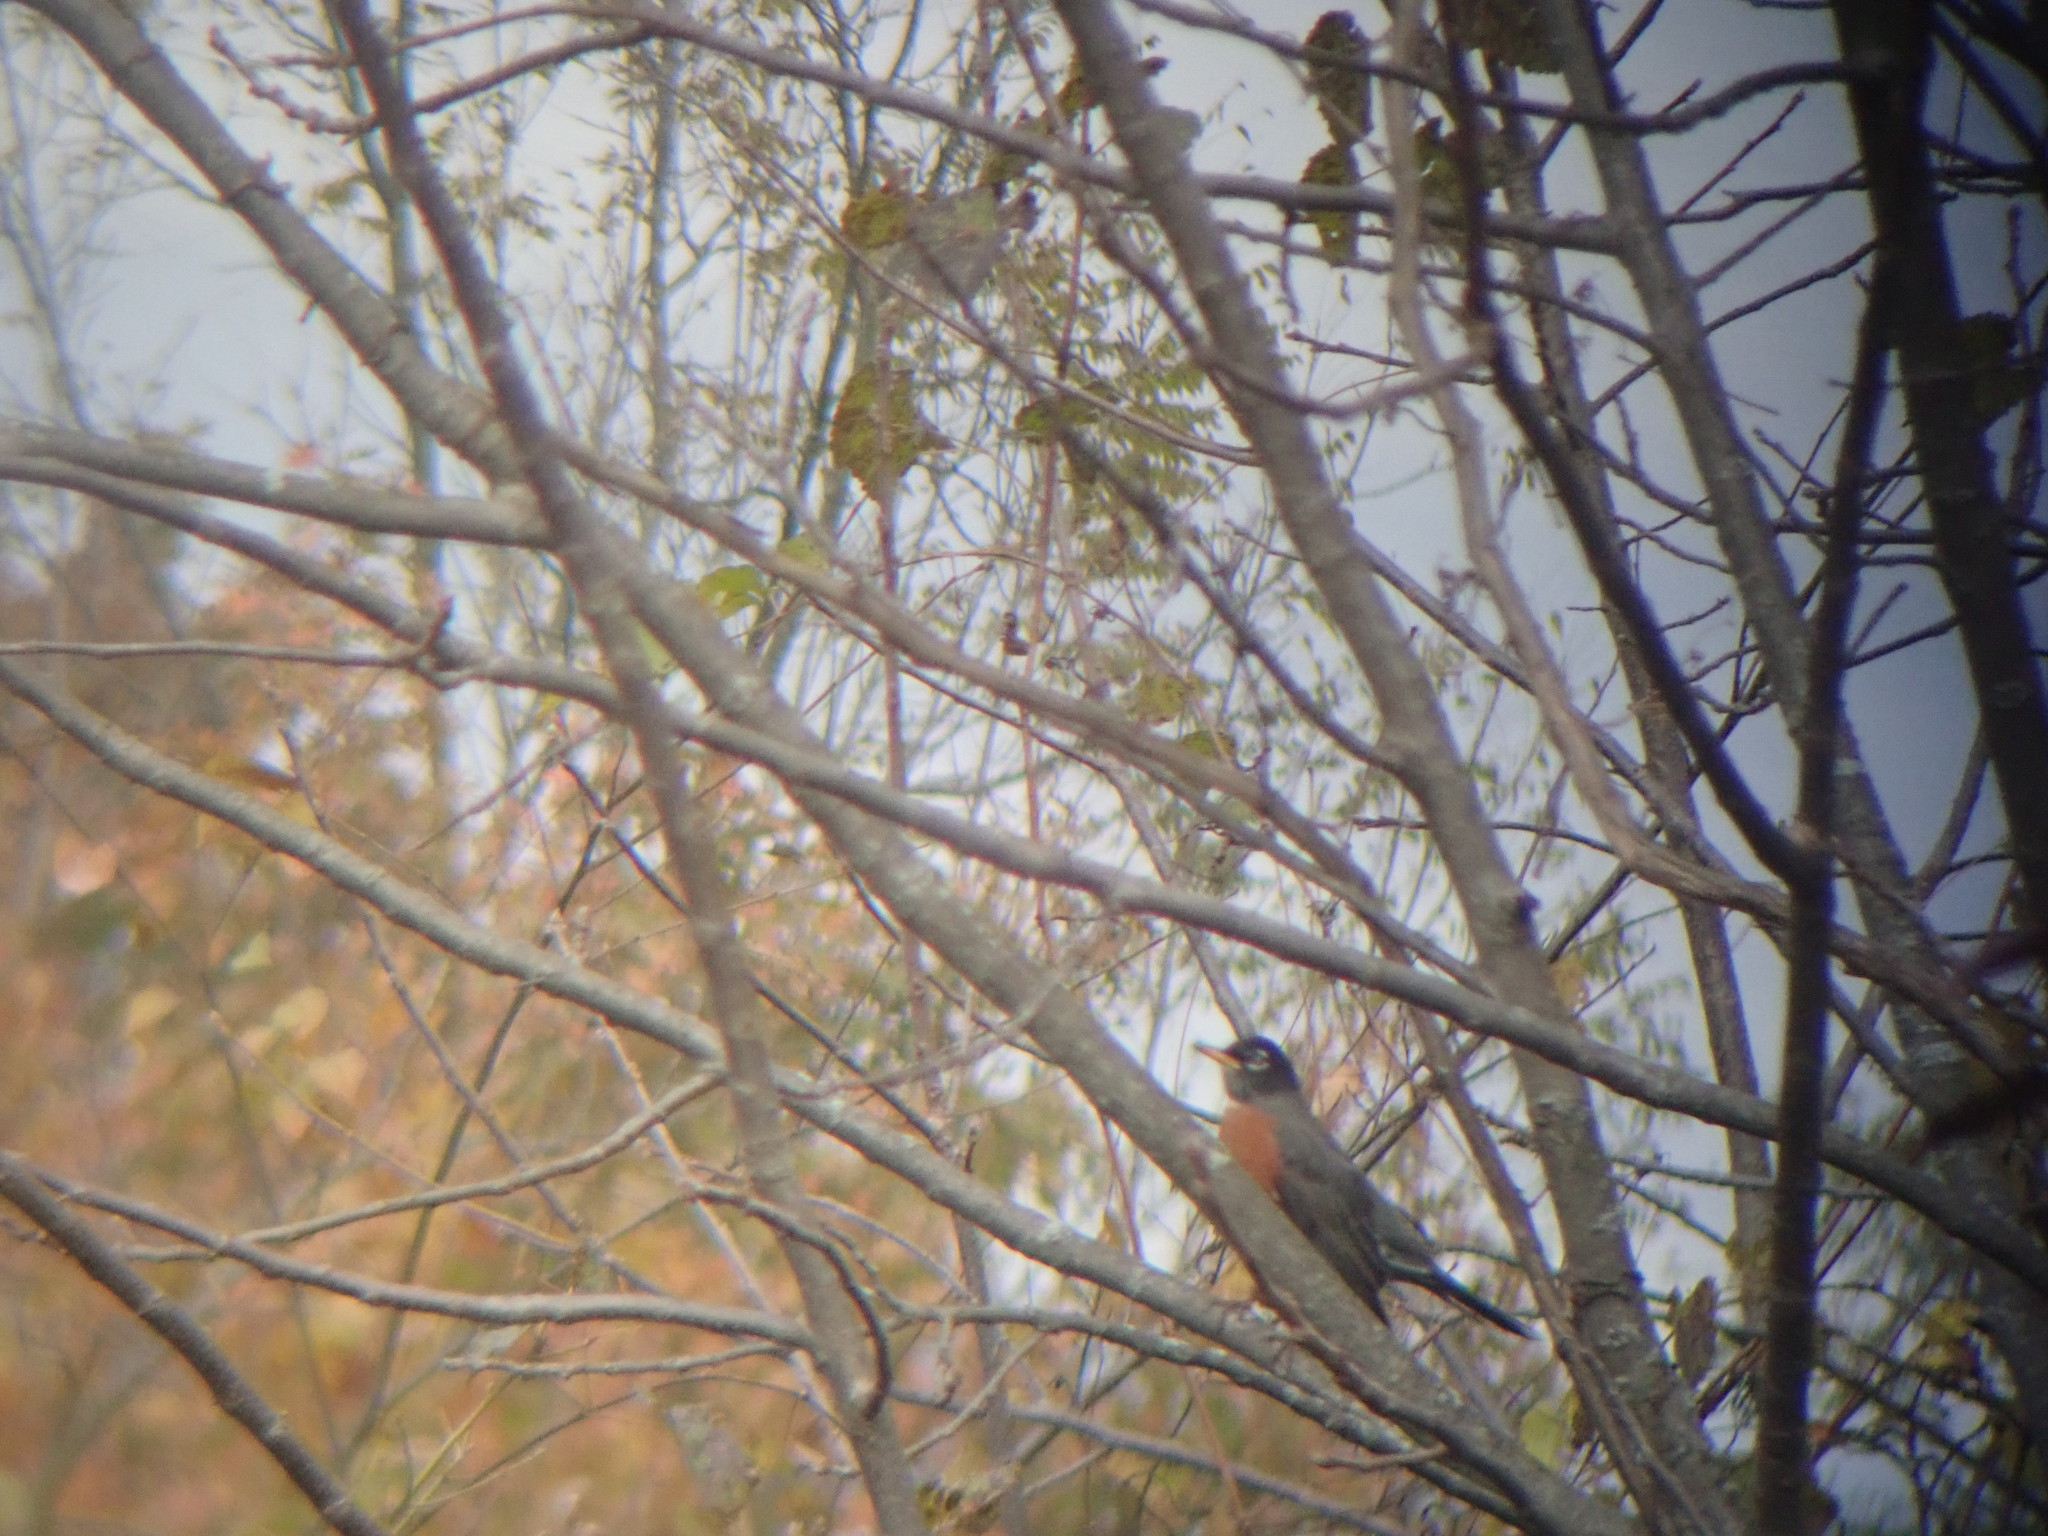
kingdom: Animalia
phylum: Chordata
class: Aves
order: Passeriformes
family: Turdidae
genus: Turdus
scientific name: Turdus migratorius
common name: American robin
